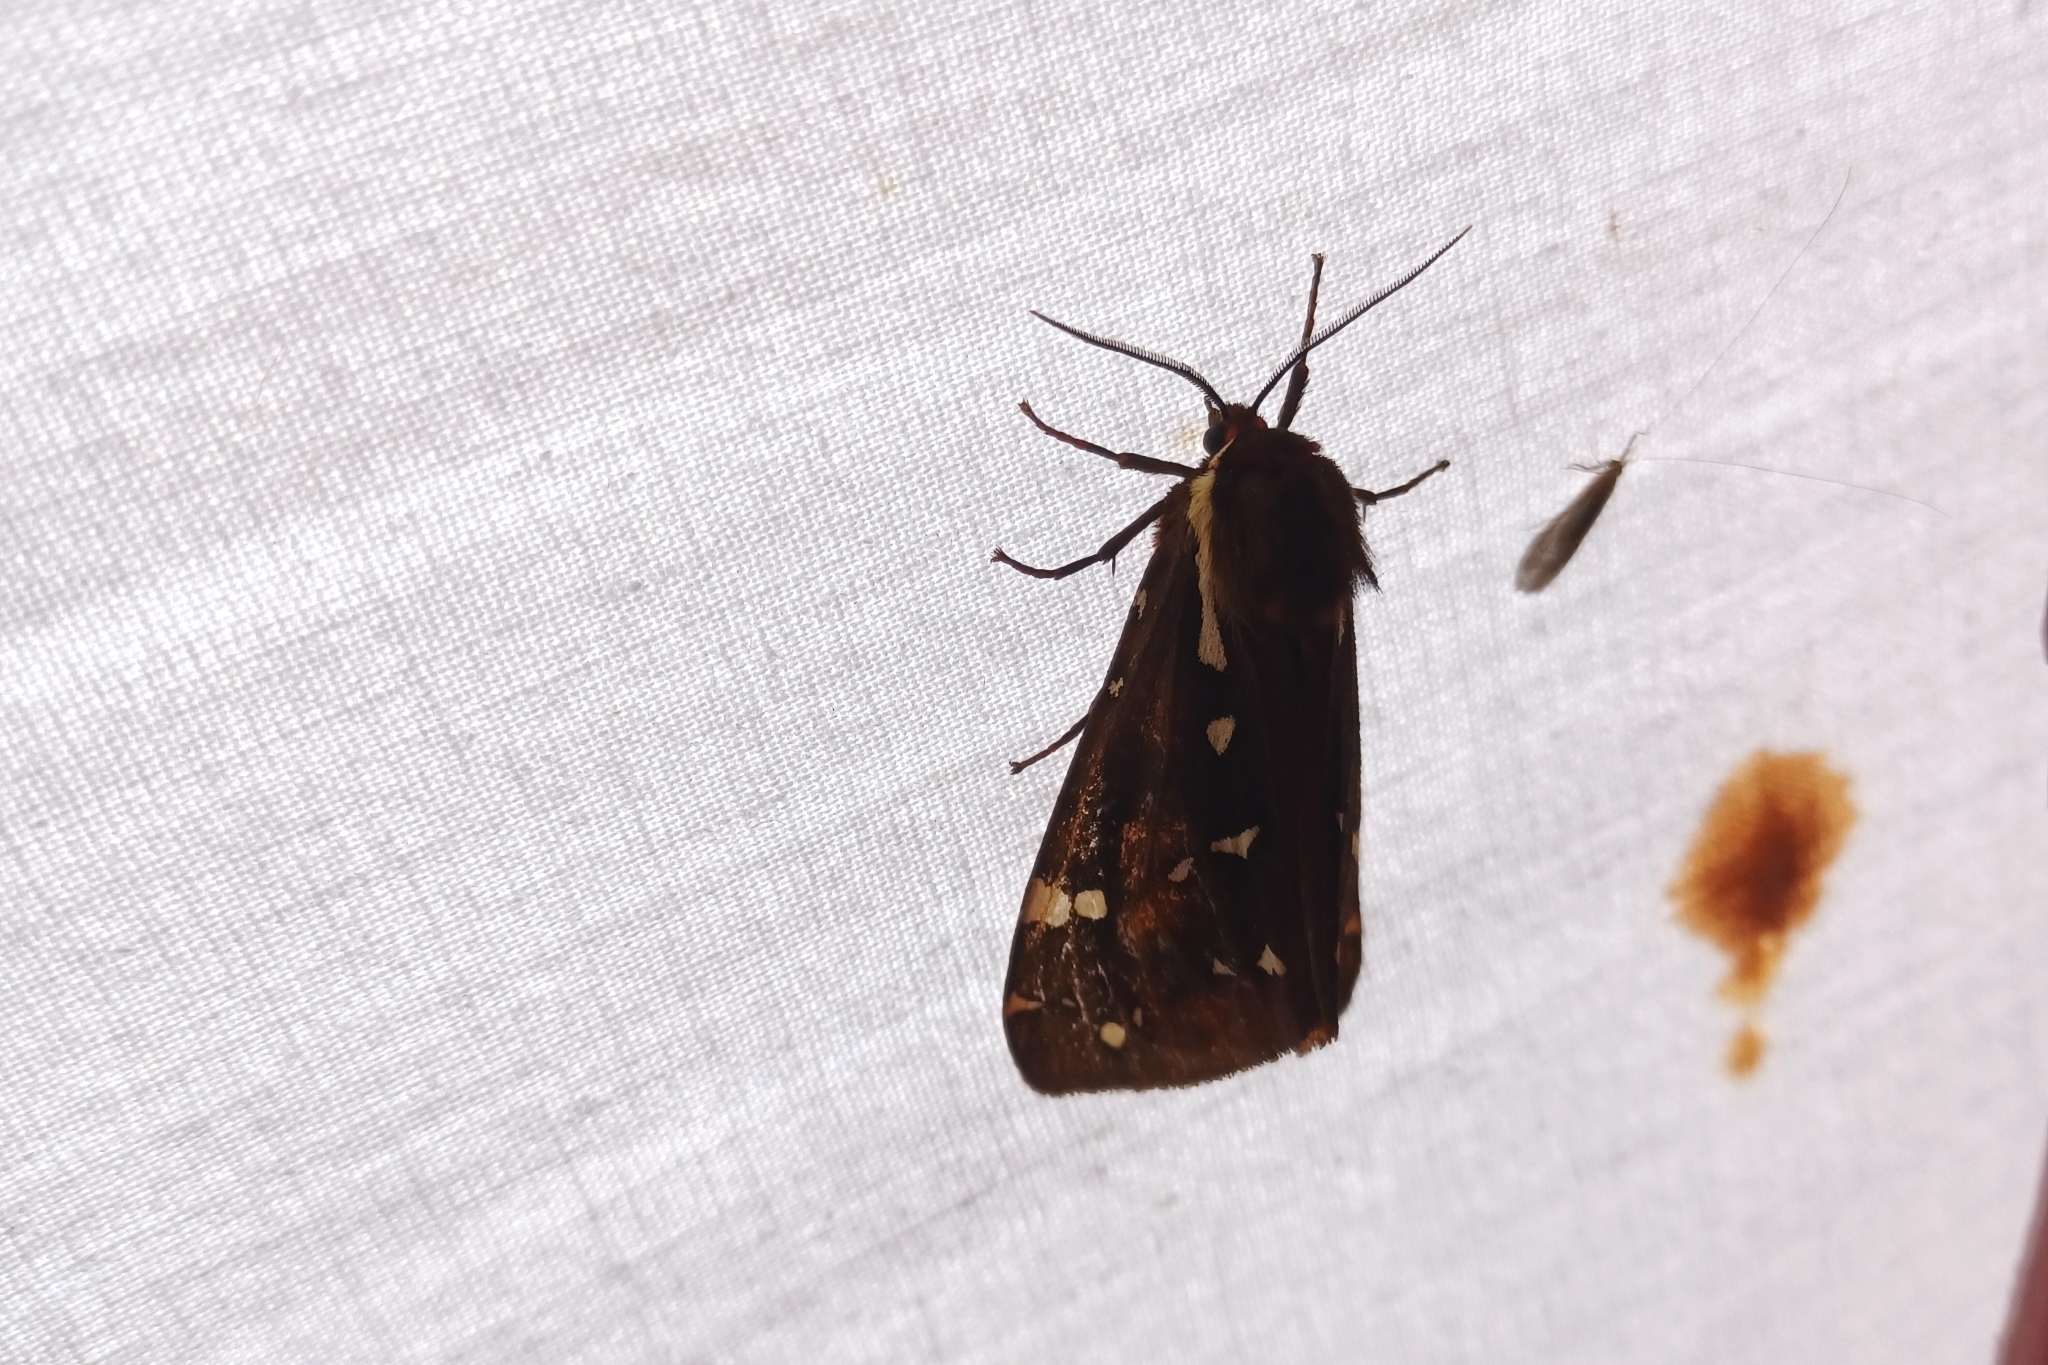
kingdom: Animalia
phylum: Arthropoda
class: Insecta
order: Lepidoptera
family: Erebidae
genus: Arctia
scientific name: Arctia parthenos
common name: St. lawrence tiger moth
